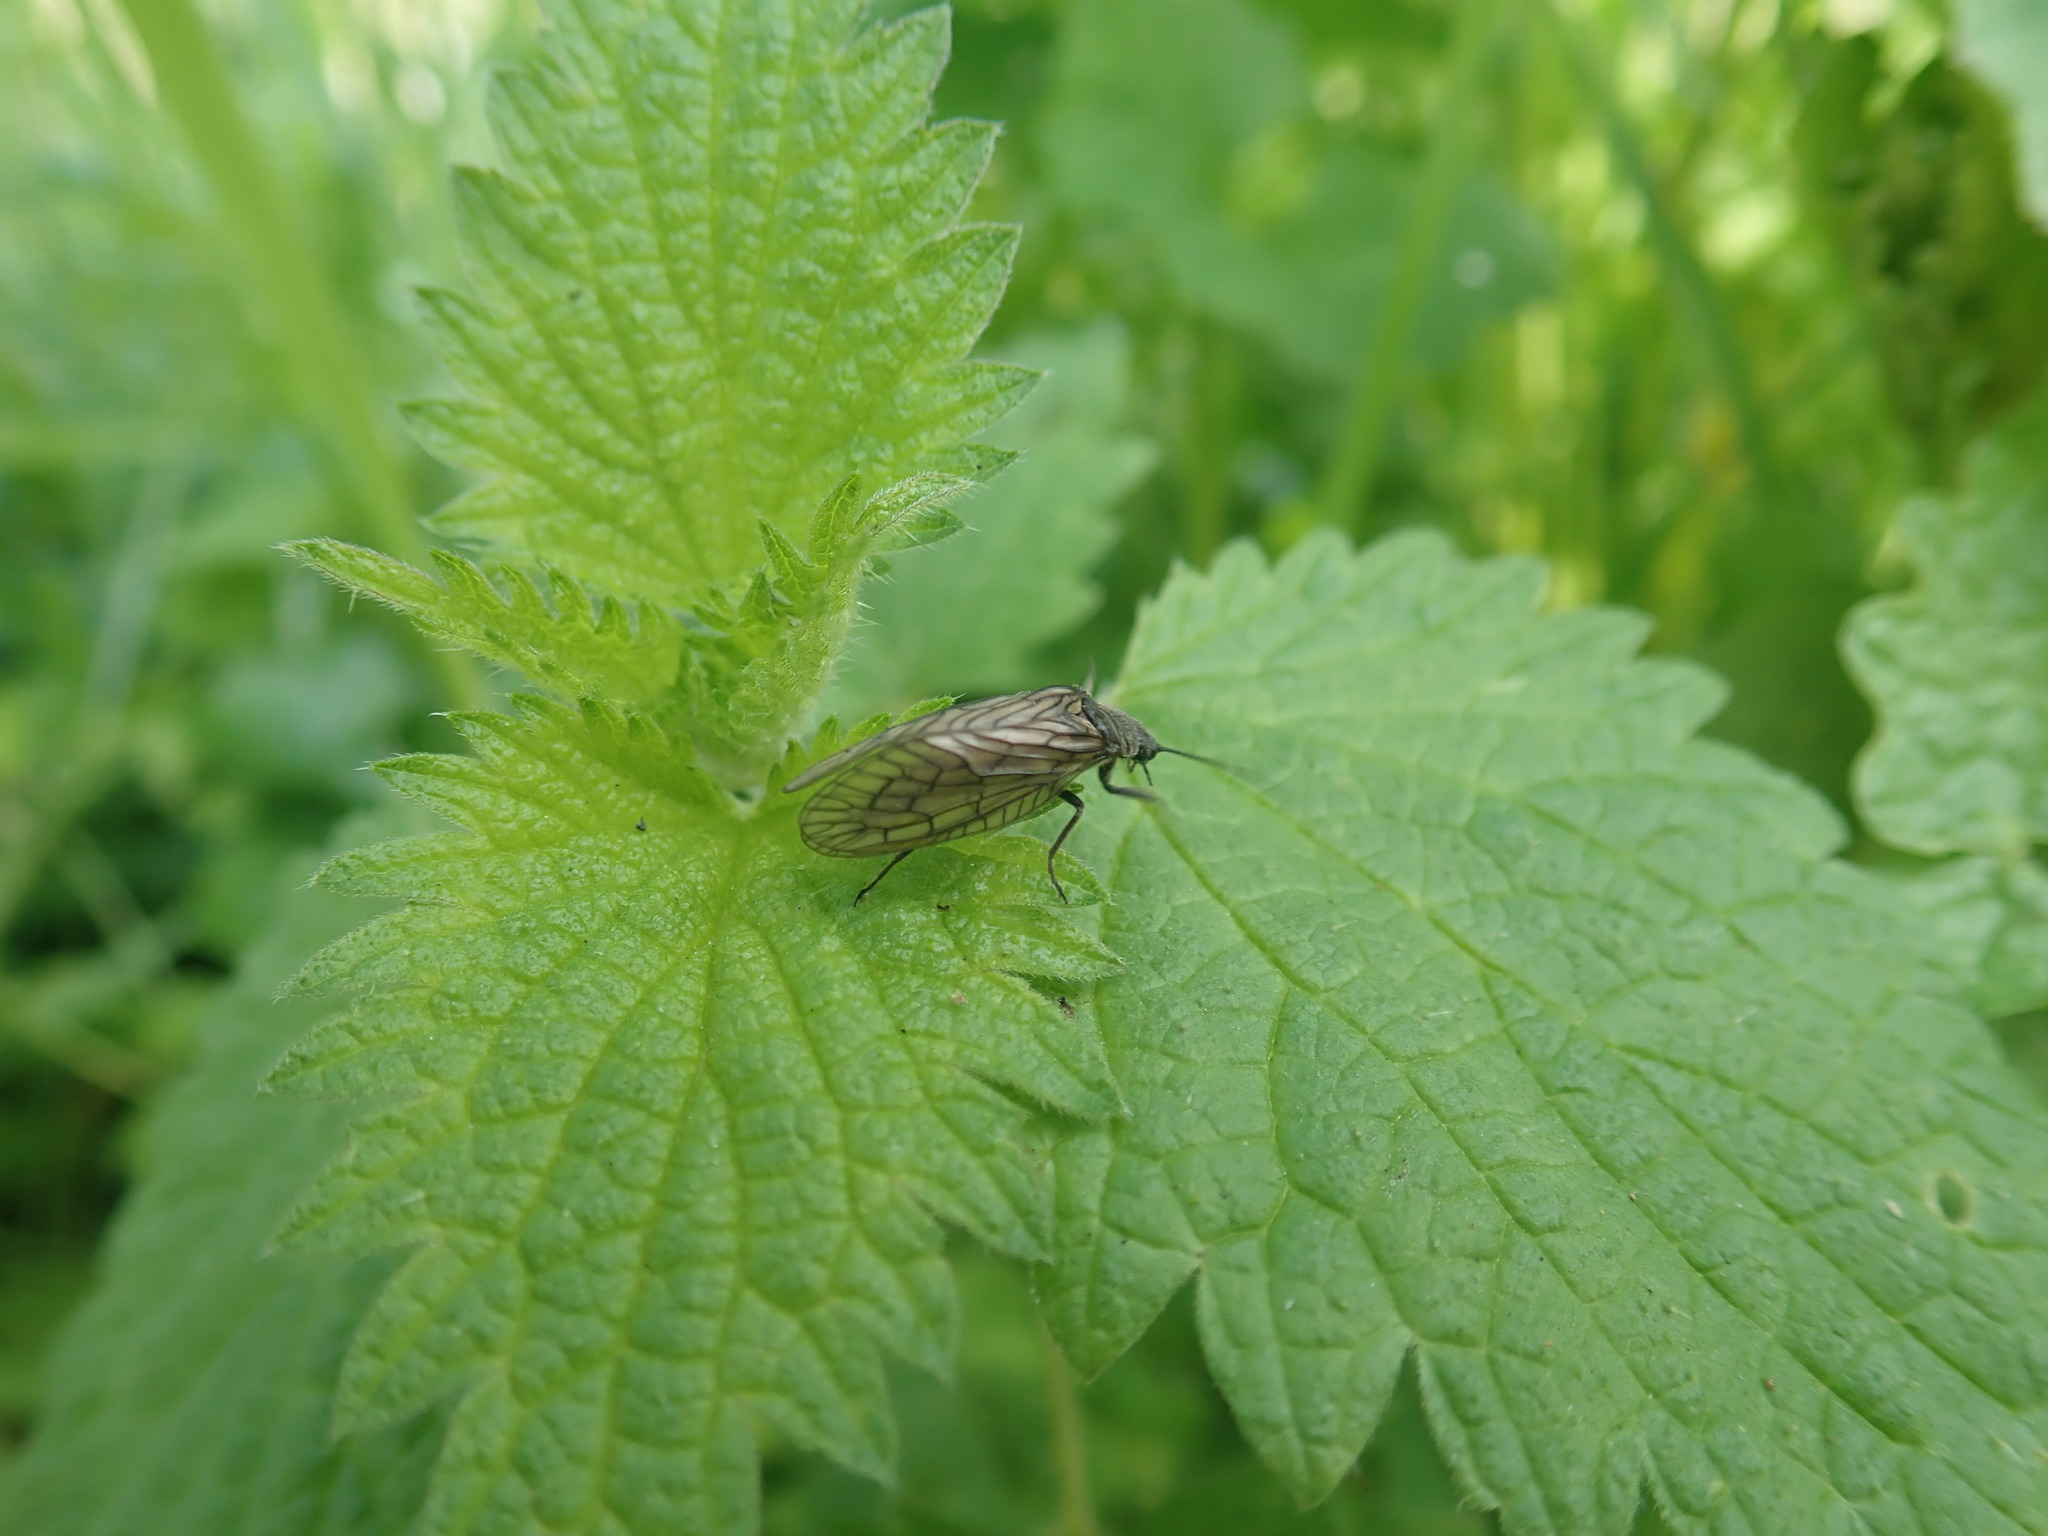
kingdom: Animalia
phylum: Arthropoda
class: Insecta
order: Megaloptera
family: Sialidae
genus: Sialis
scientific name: Sialis
